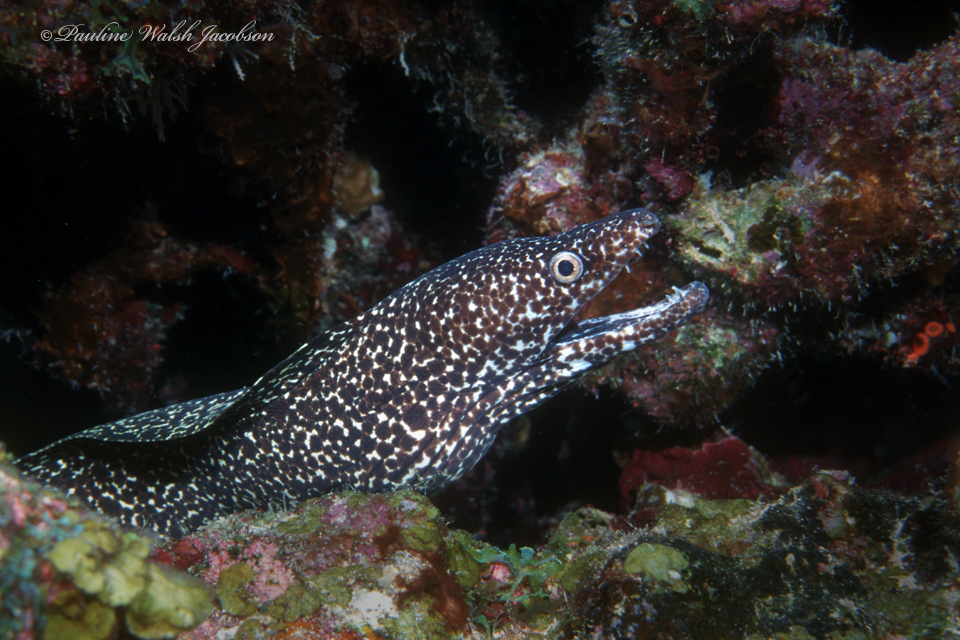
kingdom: Animalia
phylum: Chordata
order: Anguilliformes
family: Muraenidae
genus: Gymnothorax
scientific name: Gymnothorax moringa
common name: Spotted moray
